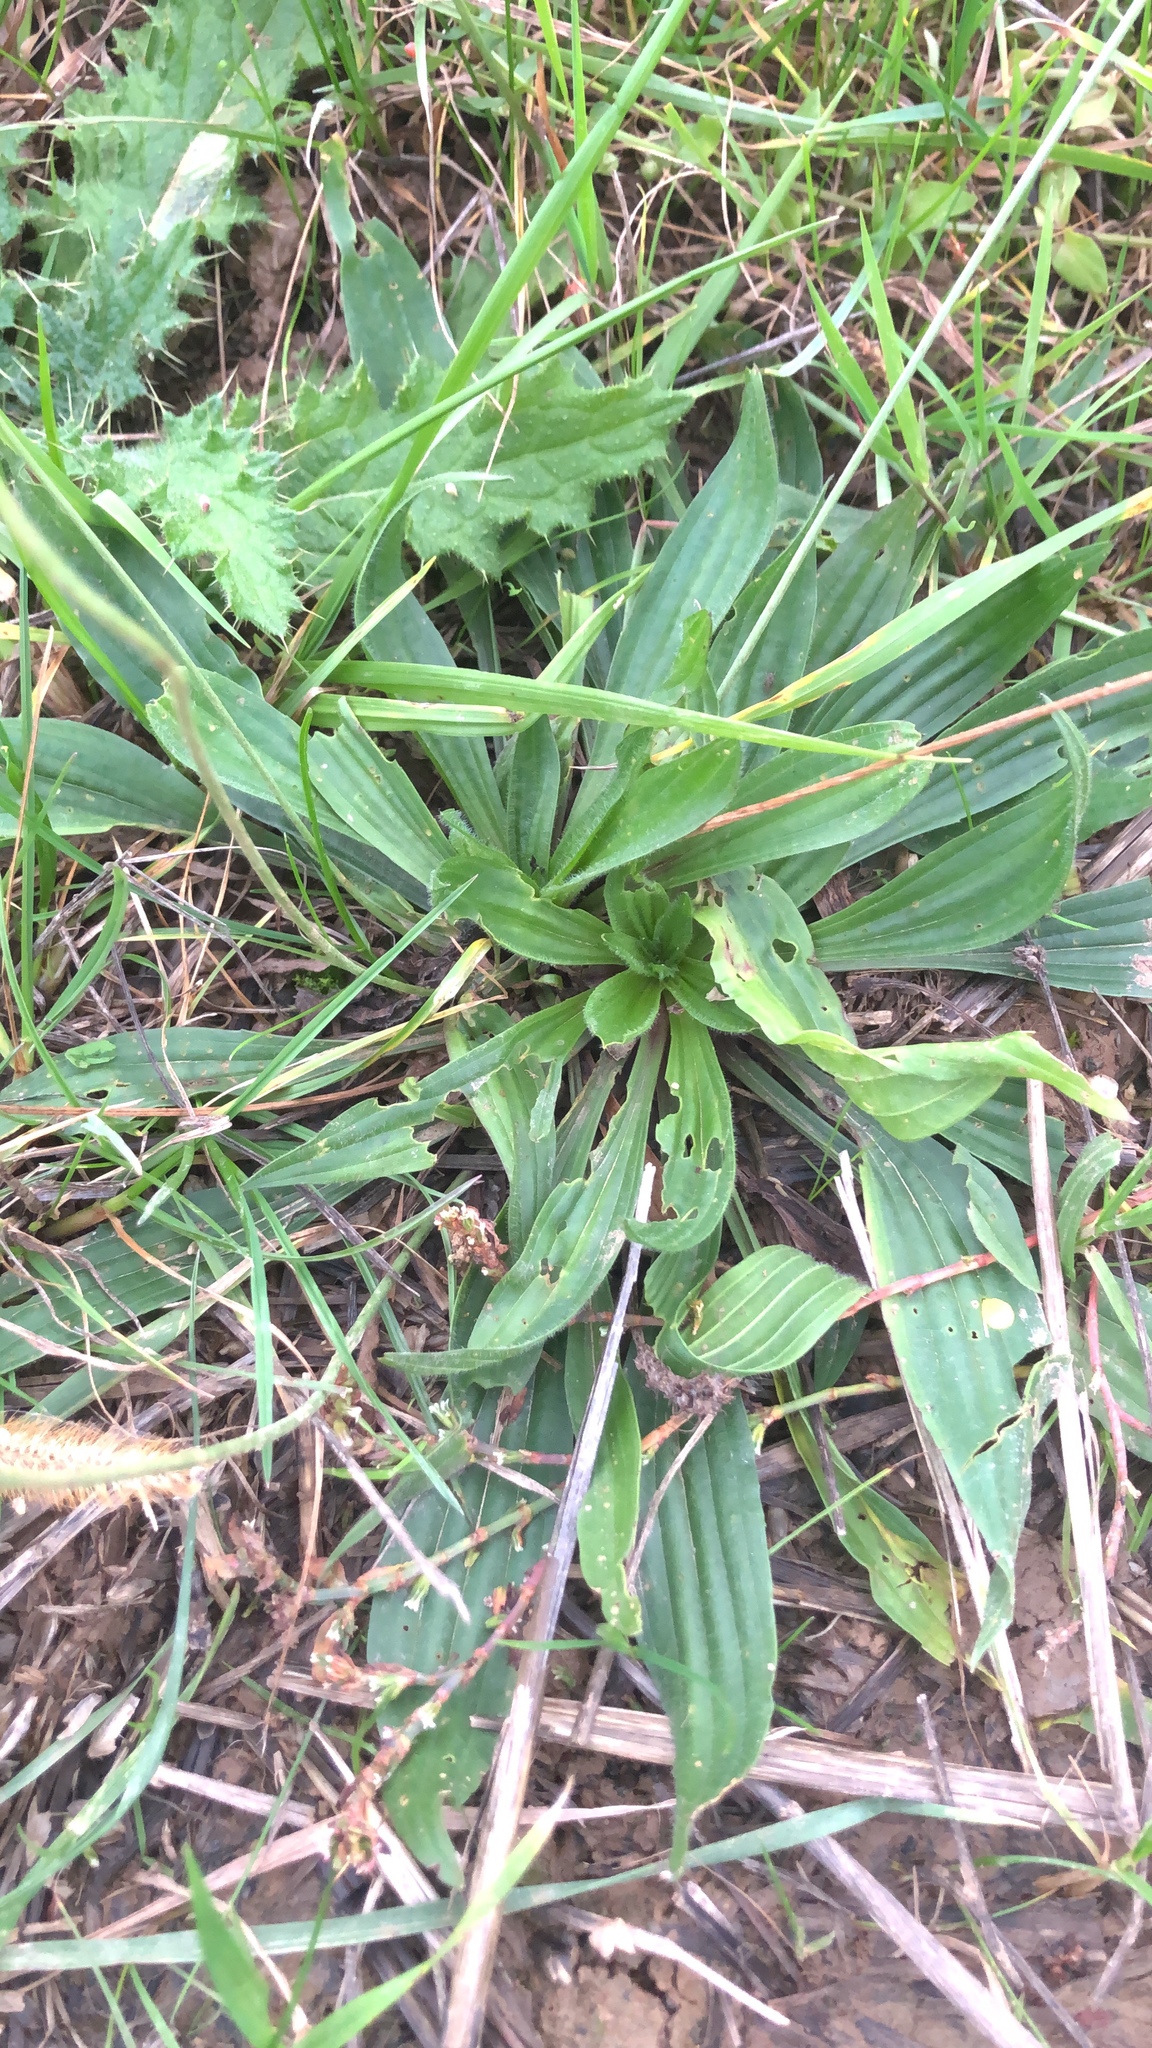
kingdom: Plantae
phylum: Tracheophyta
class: Magnoliopsida
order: Lamiales
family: Plantaginaceae
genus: Plantago
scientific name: Plantago lanceolata
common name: Ribwort plantain
